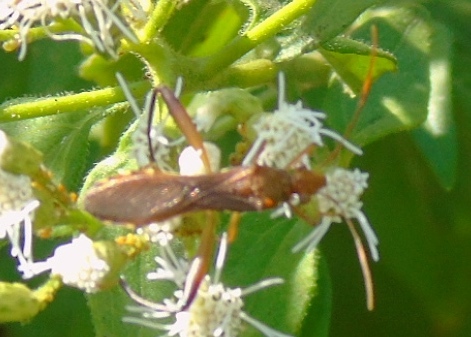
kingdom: Animalia
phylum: Arthropoda
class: Insecta
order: Hemiptera
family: Alydidae
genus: Hyalymenus
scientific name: Hyalymenus
